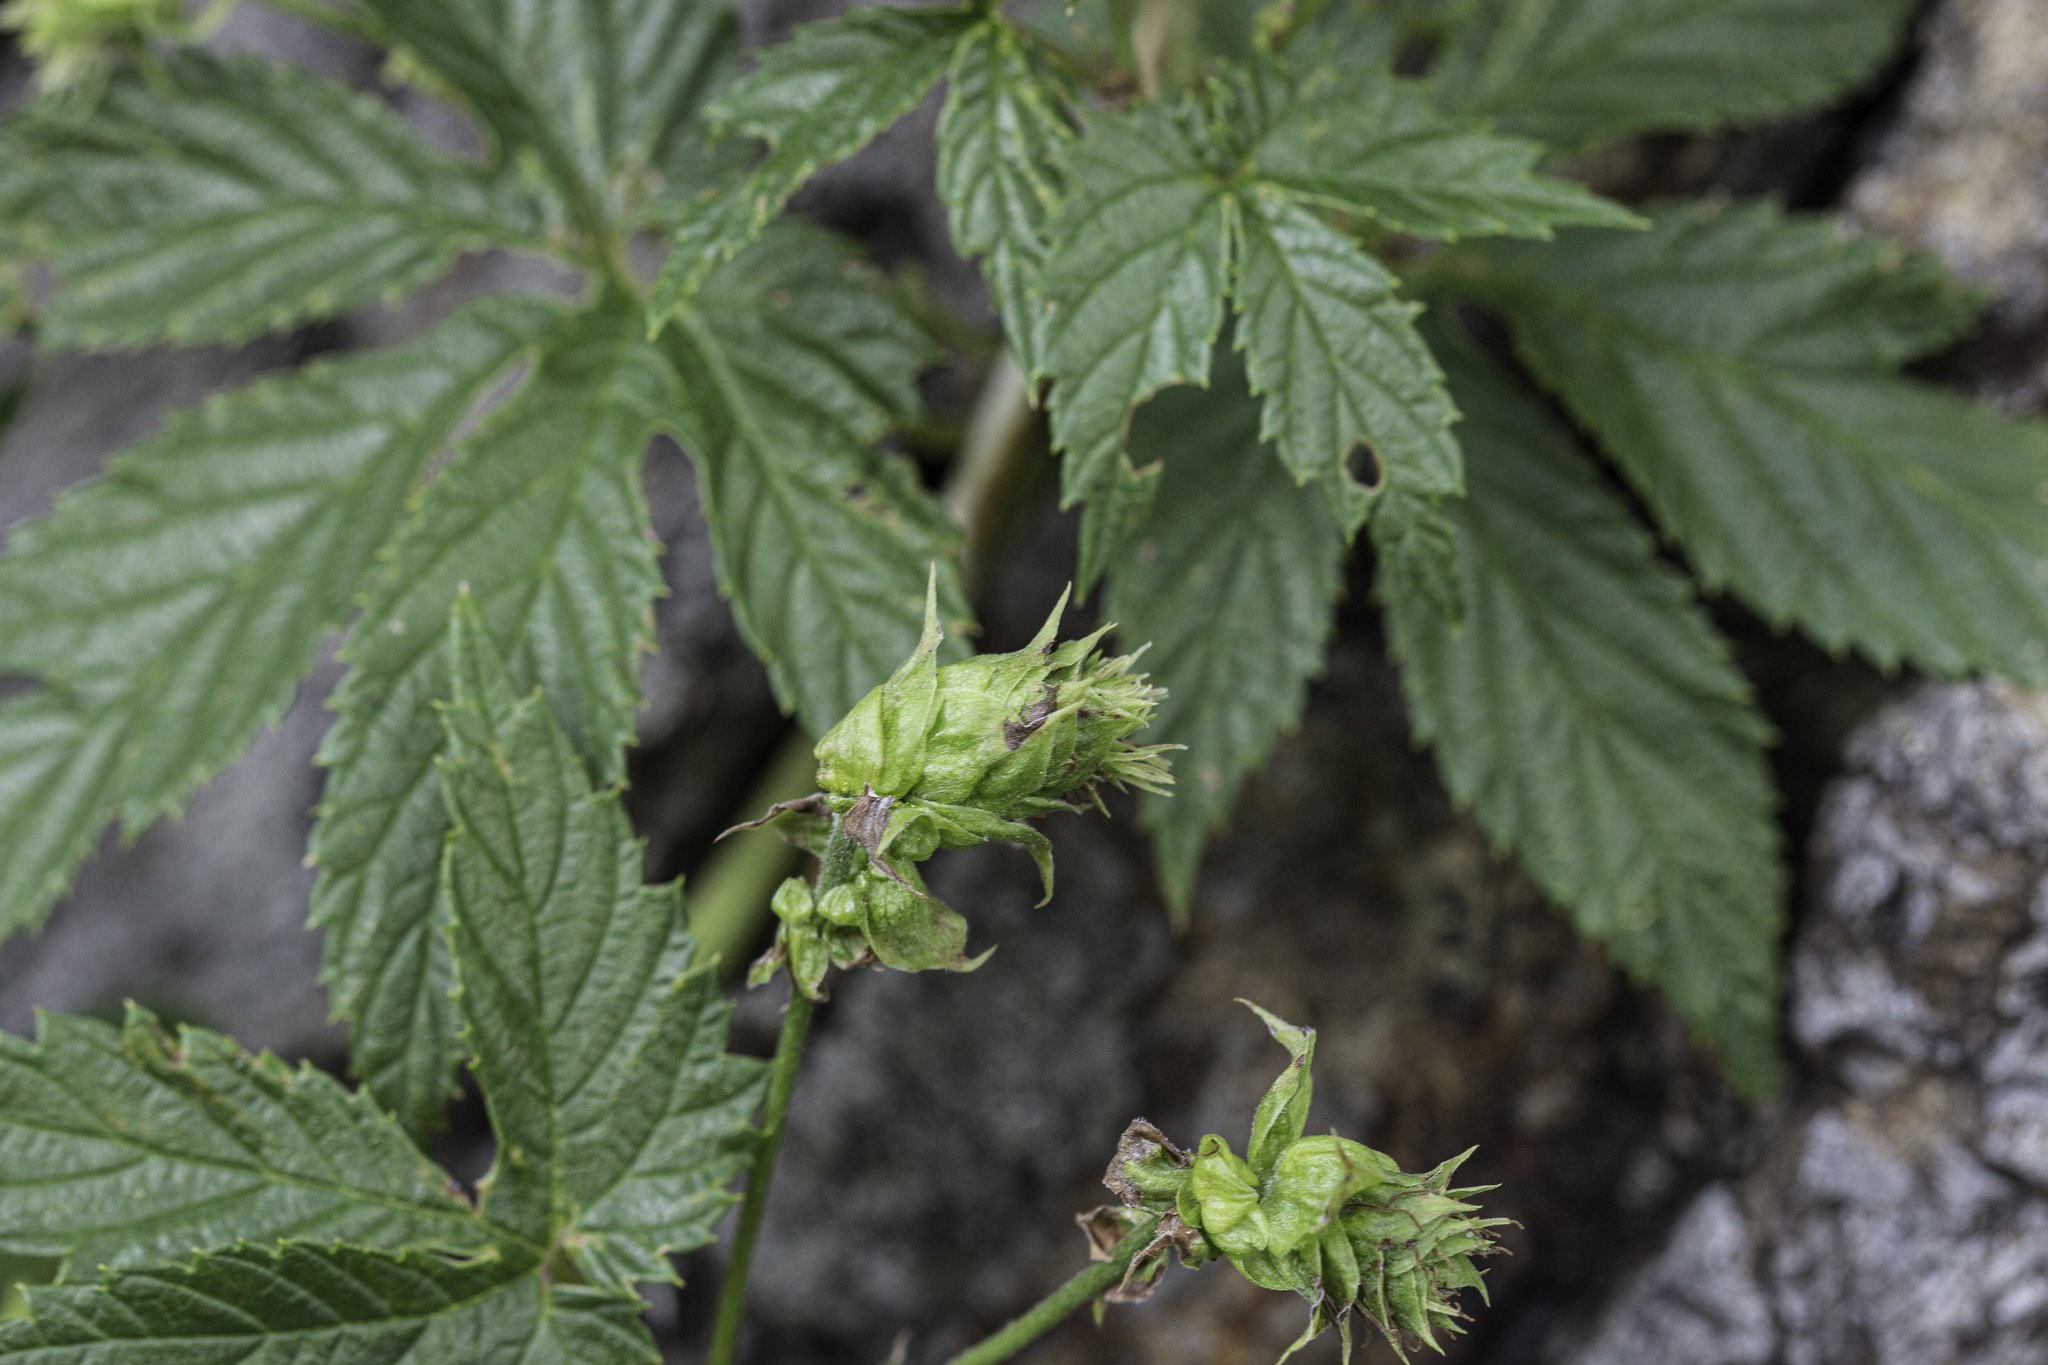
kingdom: Plantae
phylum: Tracheophyta
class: Magnoliopsida
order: Rosales
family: Cannabaceae
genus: Humulus
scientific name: Humulus lupulus
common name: Hop
